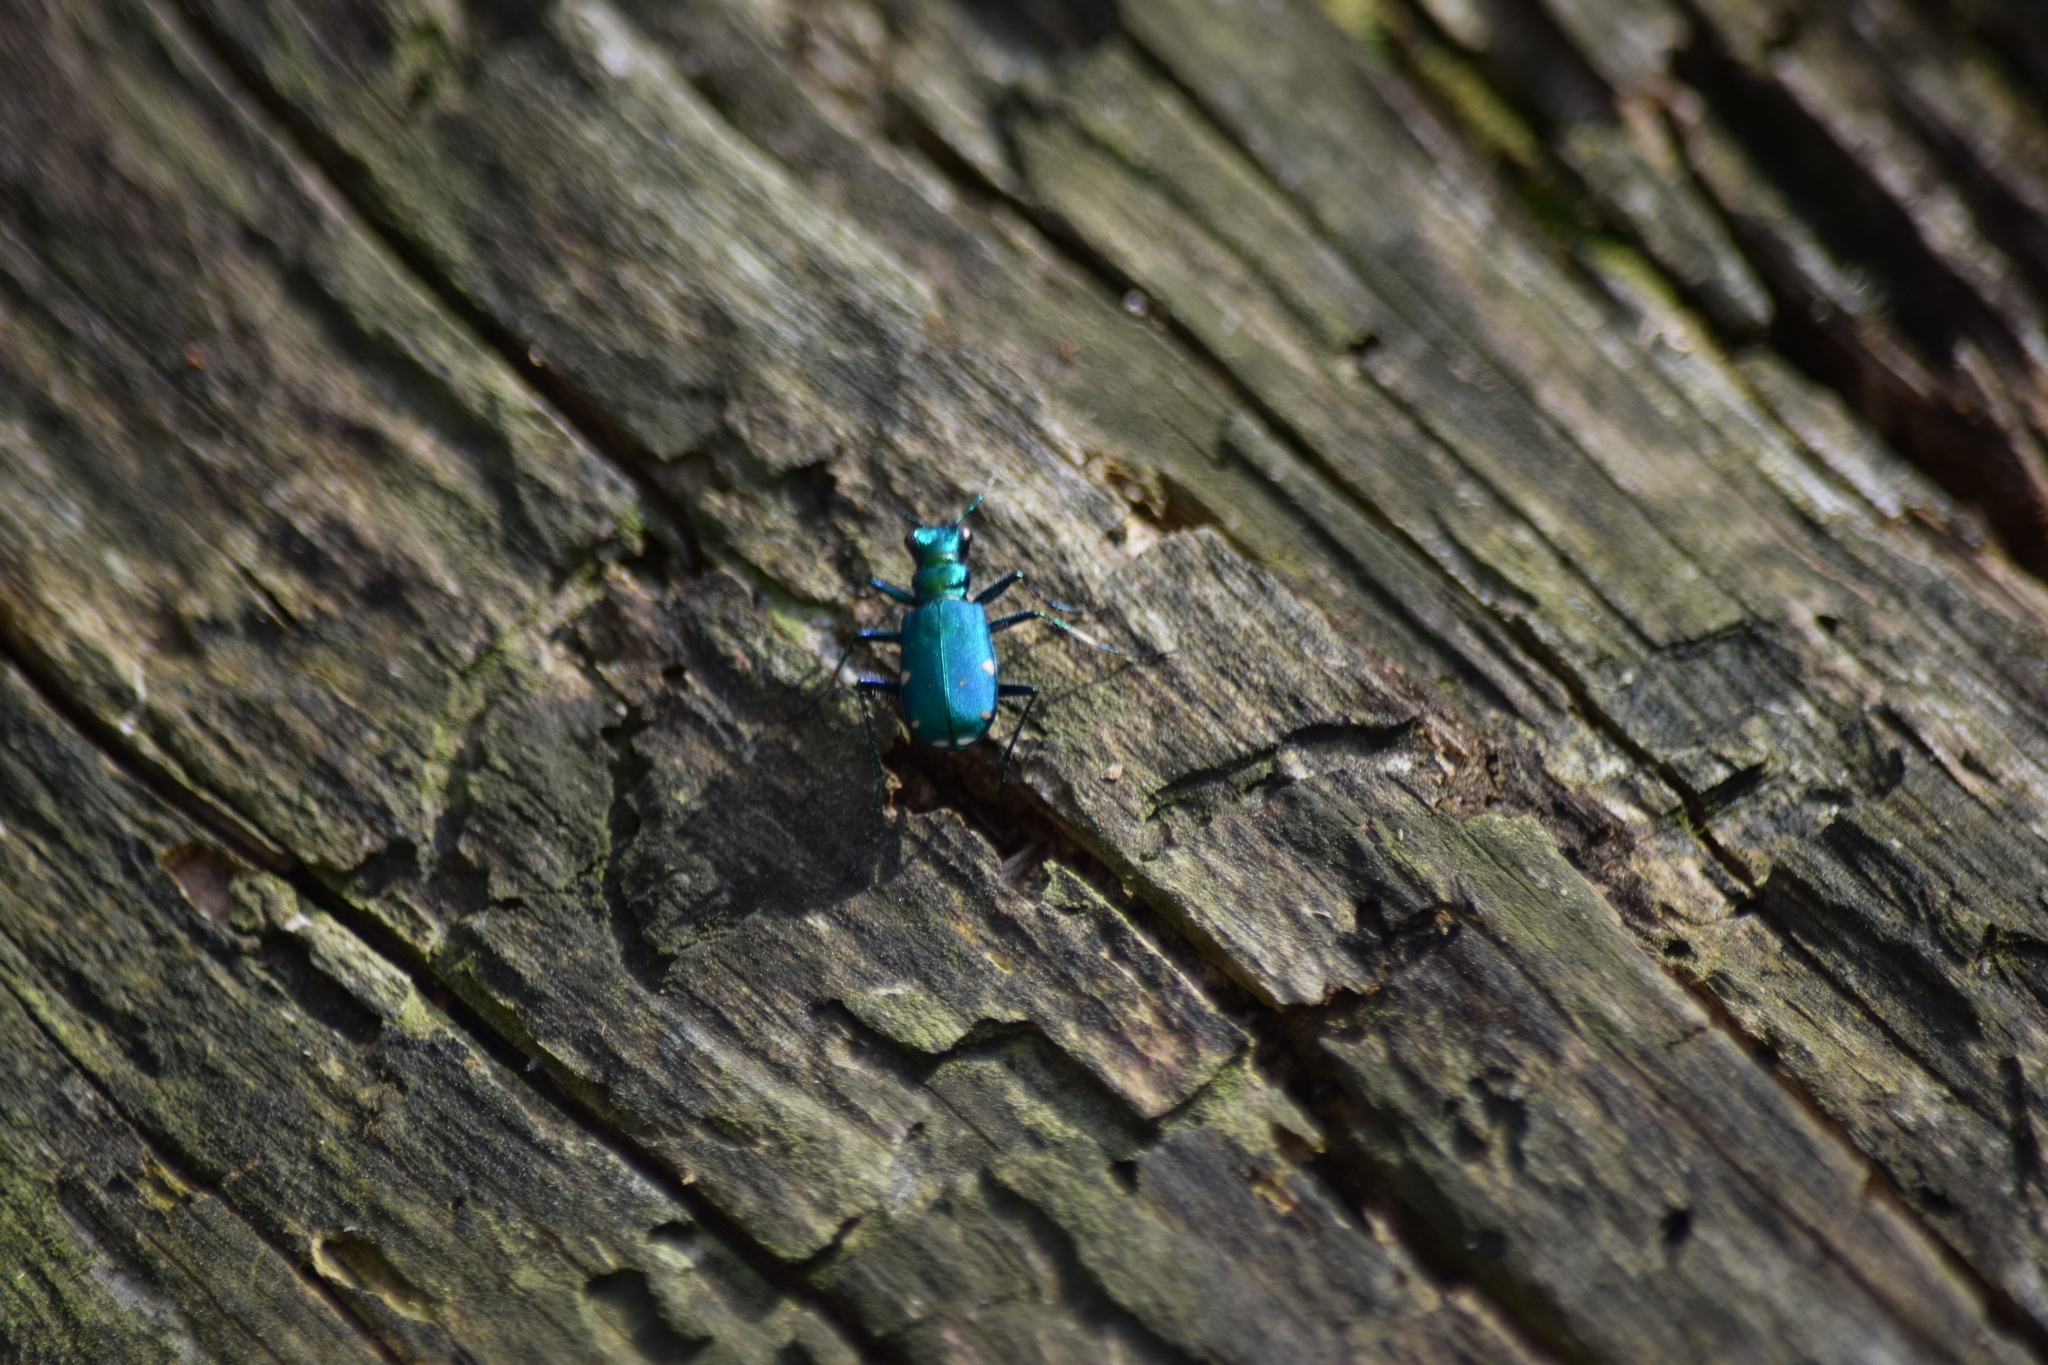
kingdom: Animalia
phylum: Arthropoda
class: Insecta
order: Coleoptera
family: Carabidae
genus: Cicindela
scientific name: Cicindela sexguttata
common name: Six-spotted tiger beetle
